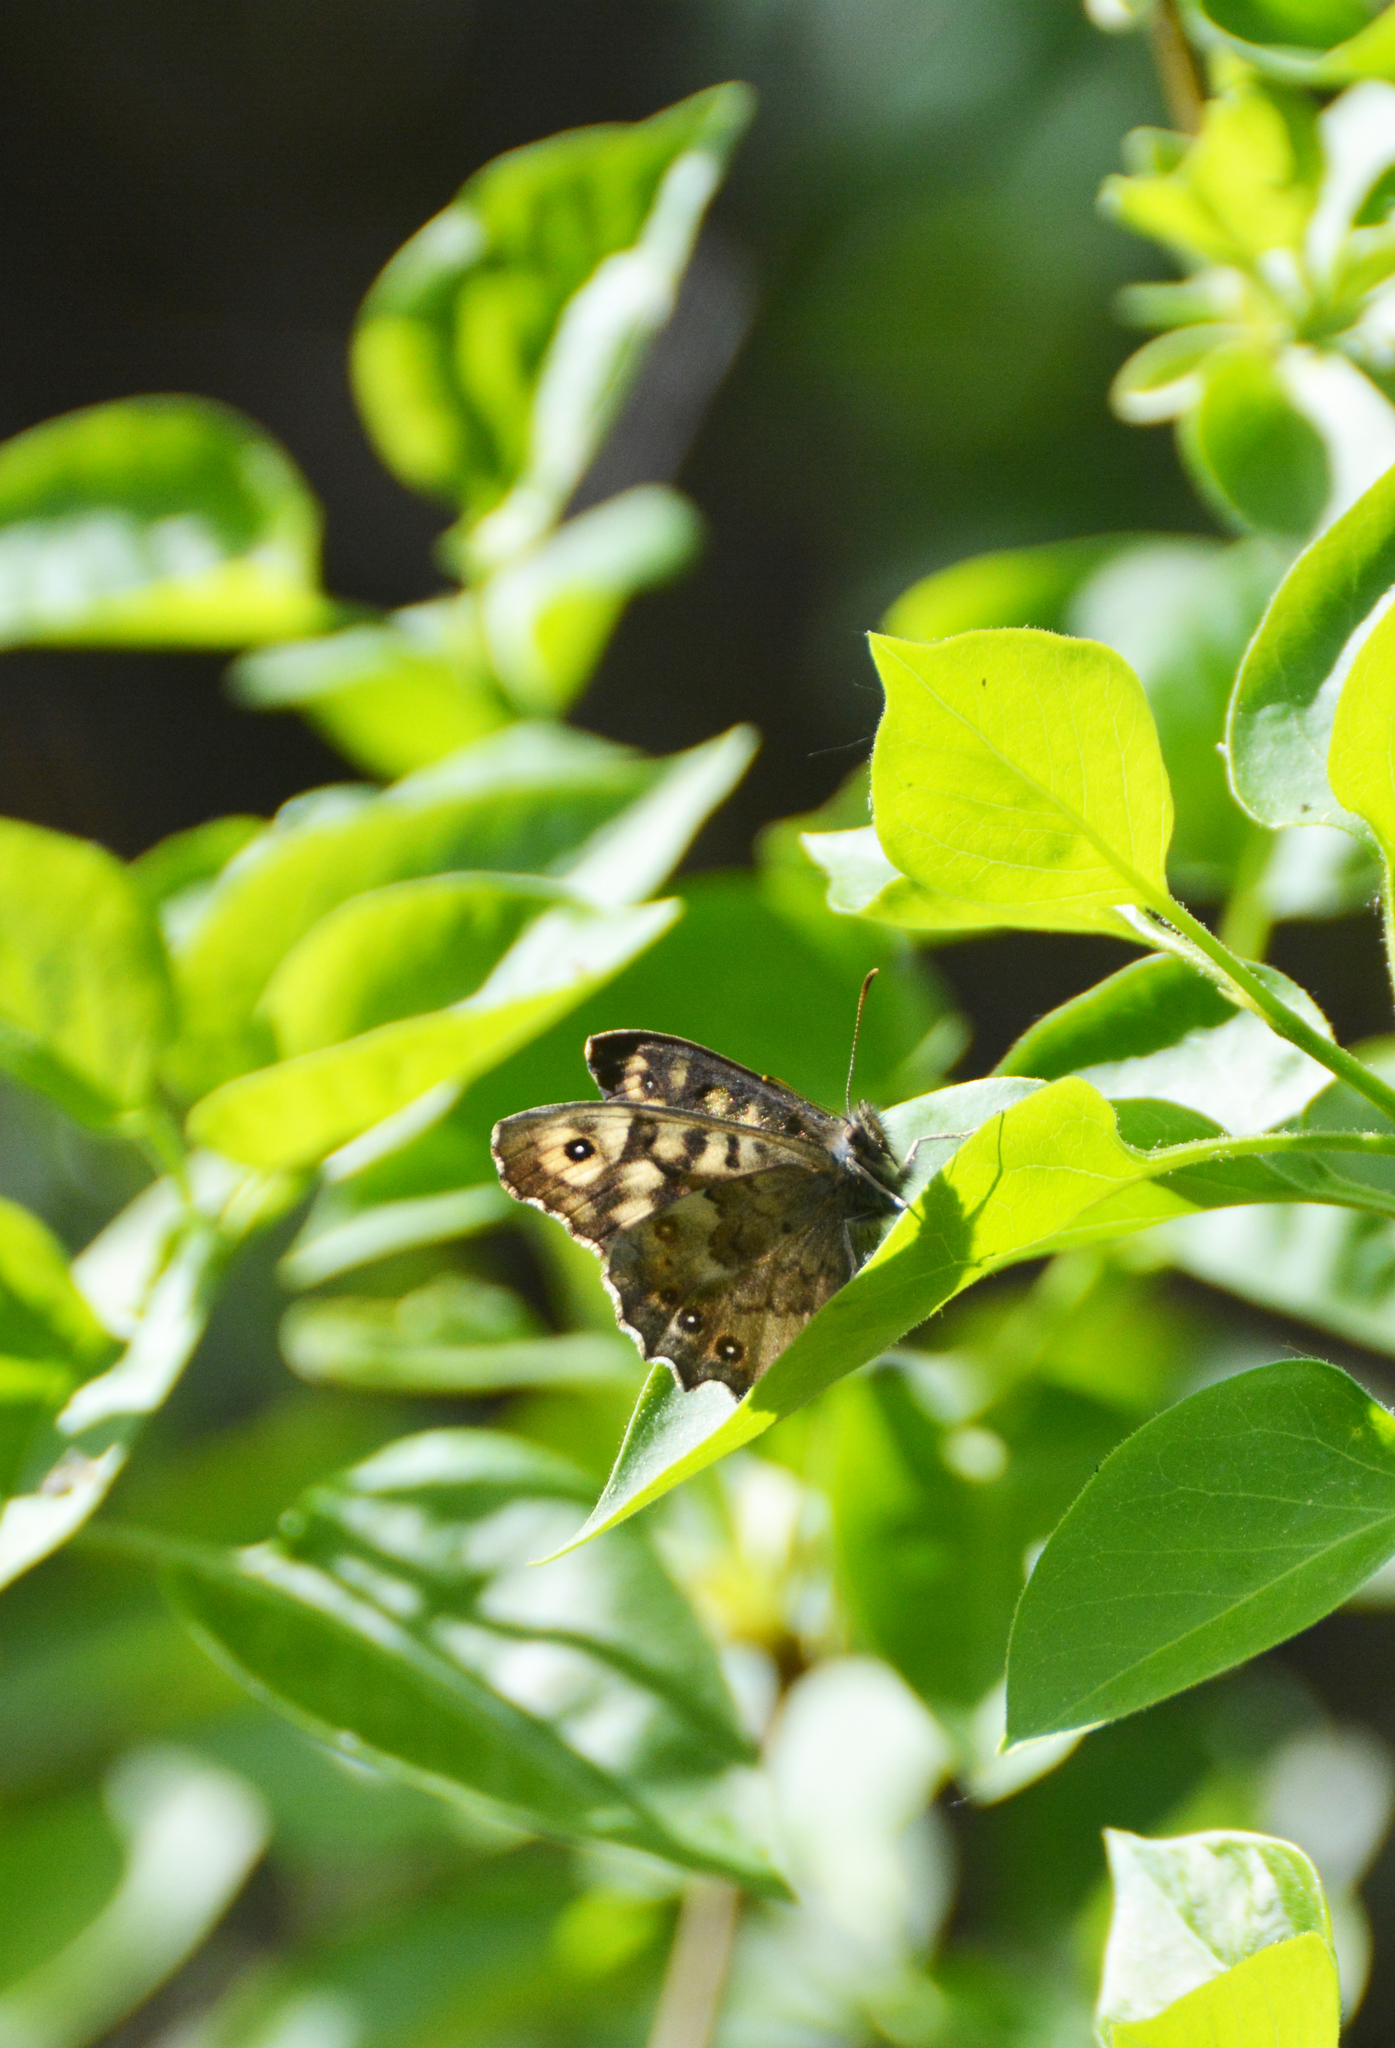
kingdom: Animalia
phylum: Arthropoda
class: Insecta
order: Lepidoptera
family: Nymphalidae
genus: Pararge
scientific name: Pararge aegeria
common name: Speckled wood
